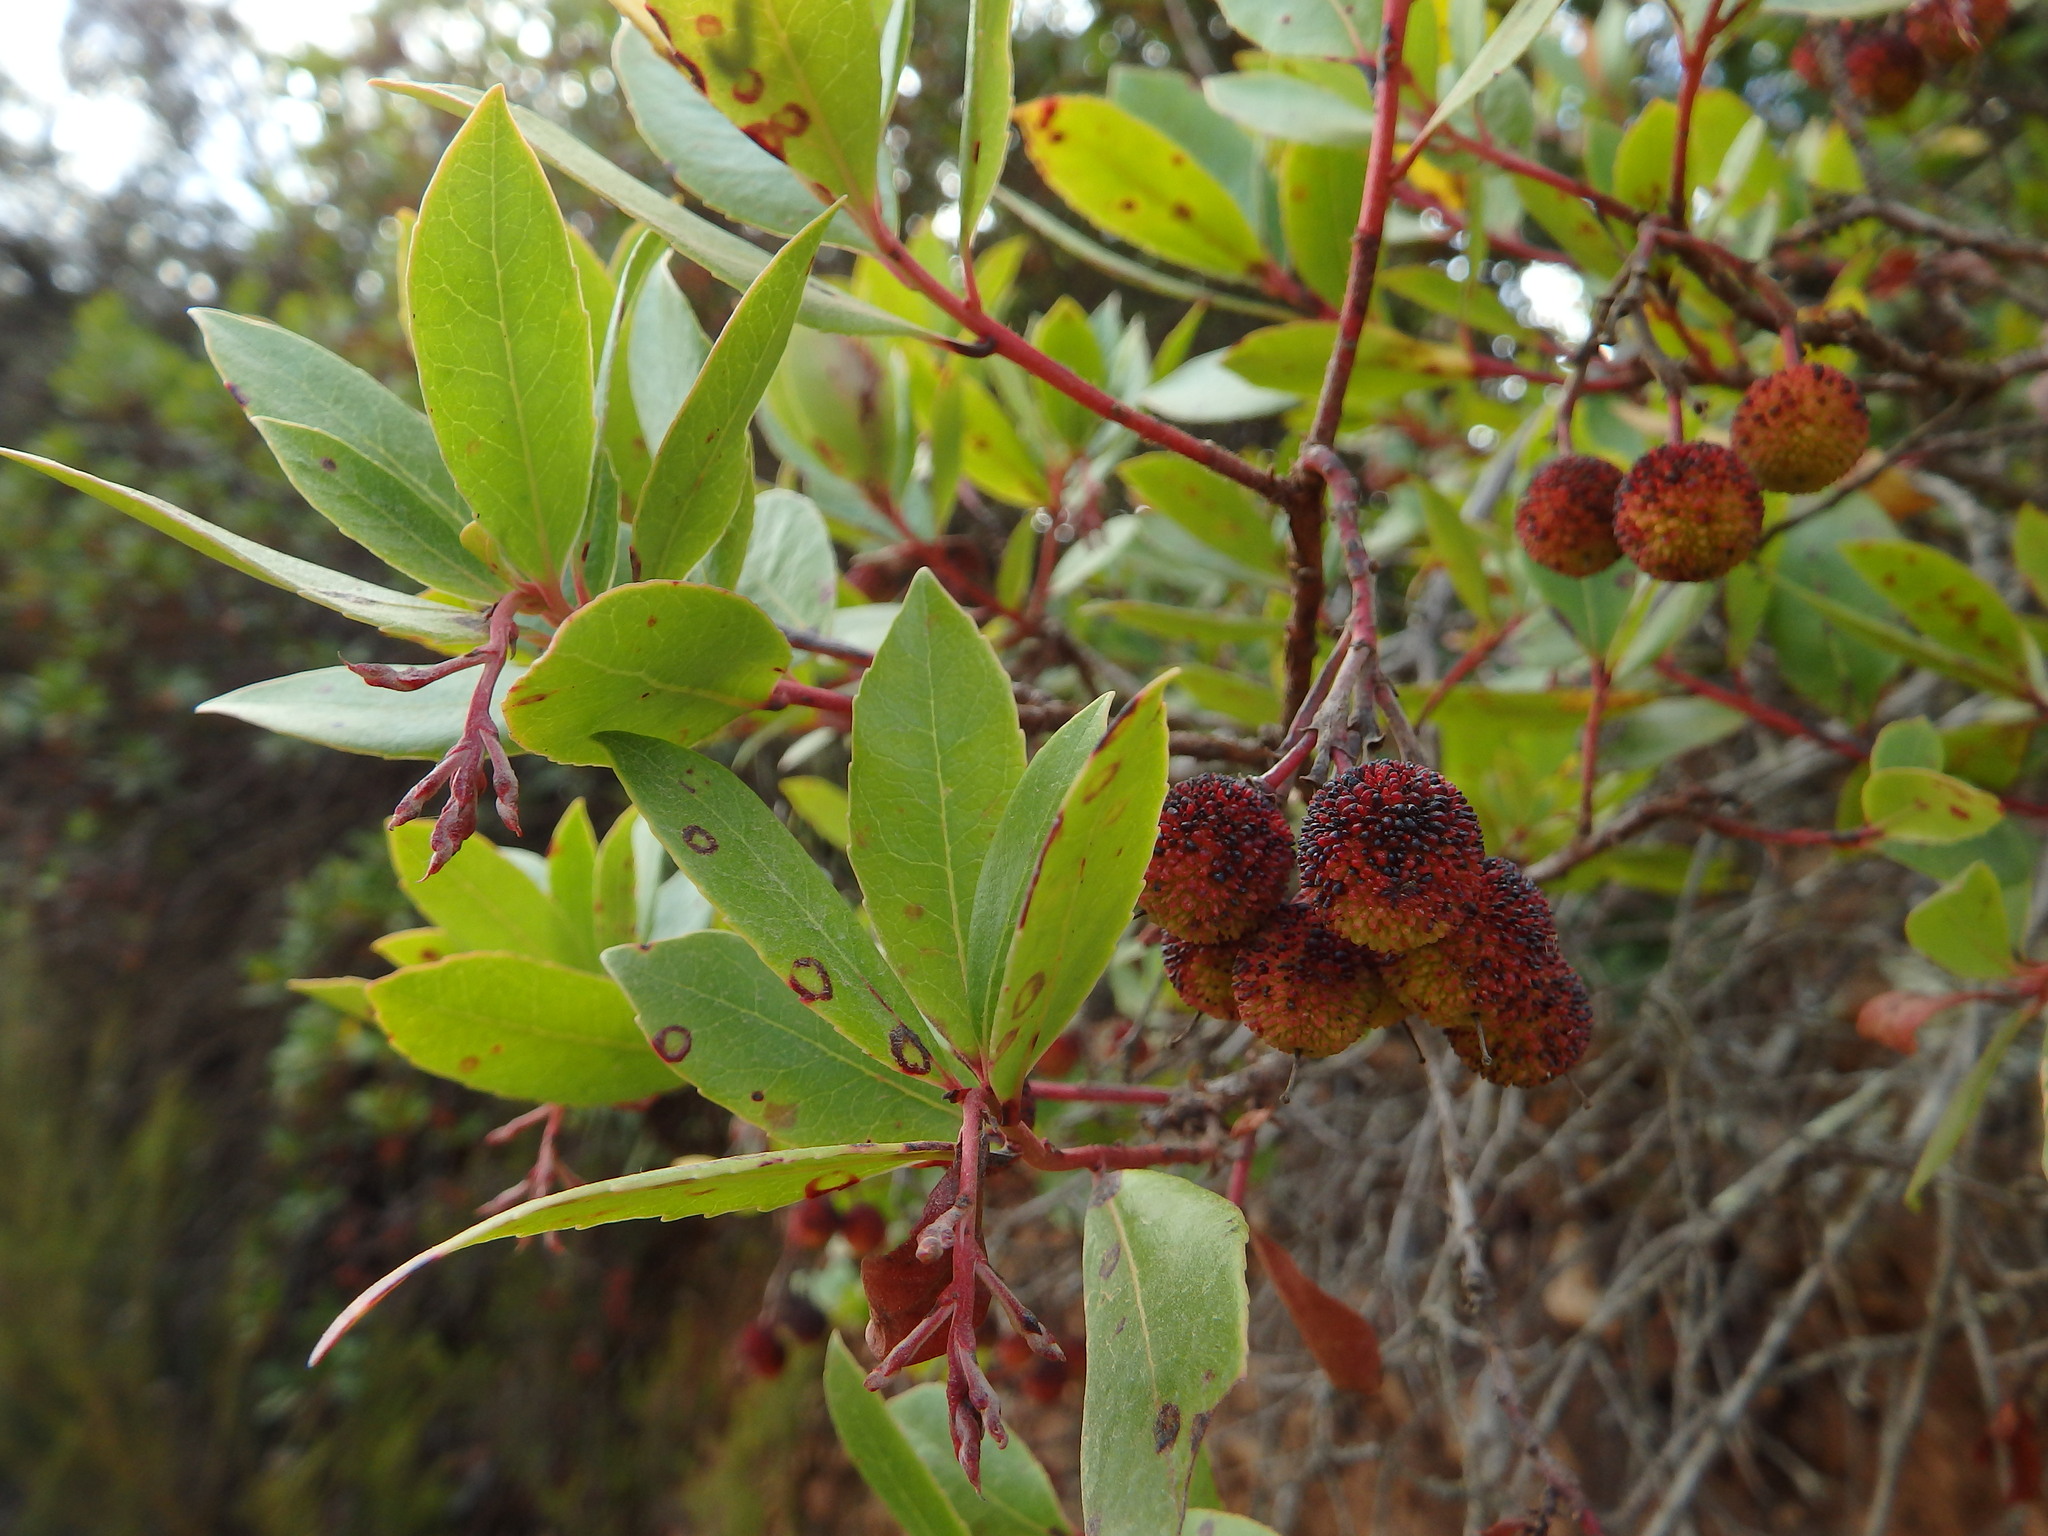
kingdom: Plantae
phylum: Tracheophyta
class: Magnoliopsida
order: Ericales
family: Ericaceae
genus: Arbutus
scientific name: Arbutus unedo
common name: Strawberry-tree
